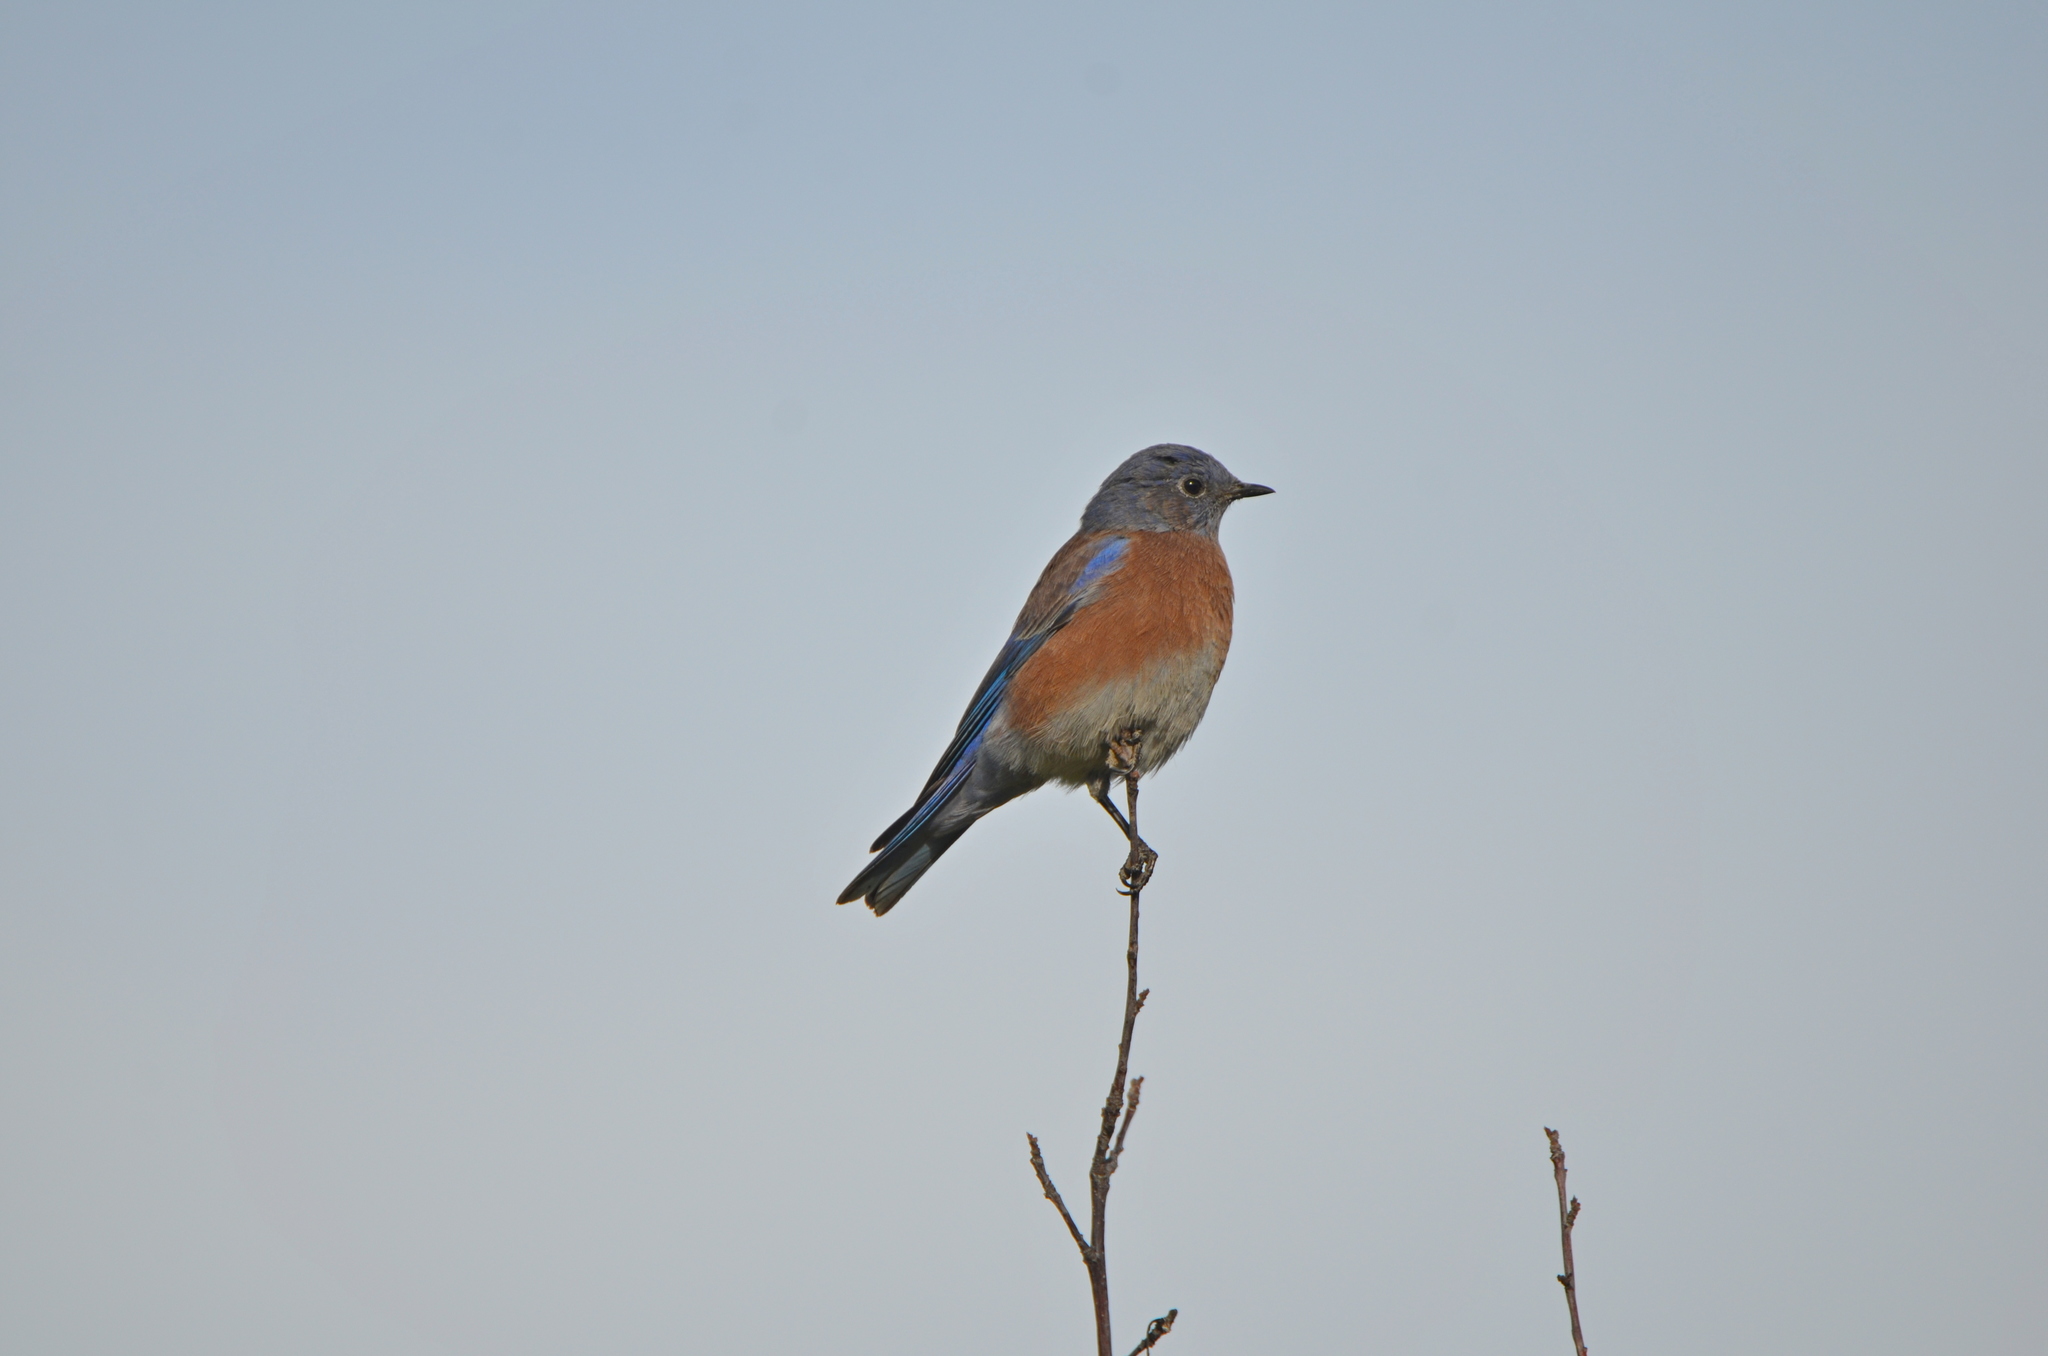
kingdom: Animalia
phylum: Chordata
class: Aves
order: Passeriformes
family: Turdidae
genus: Sialia
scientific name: Sialia mexicana
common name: Western bluebird
